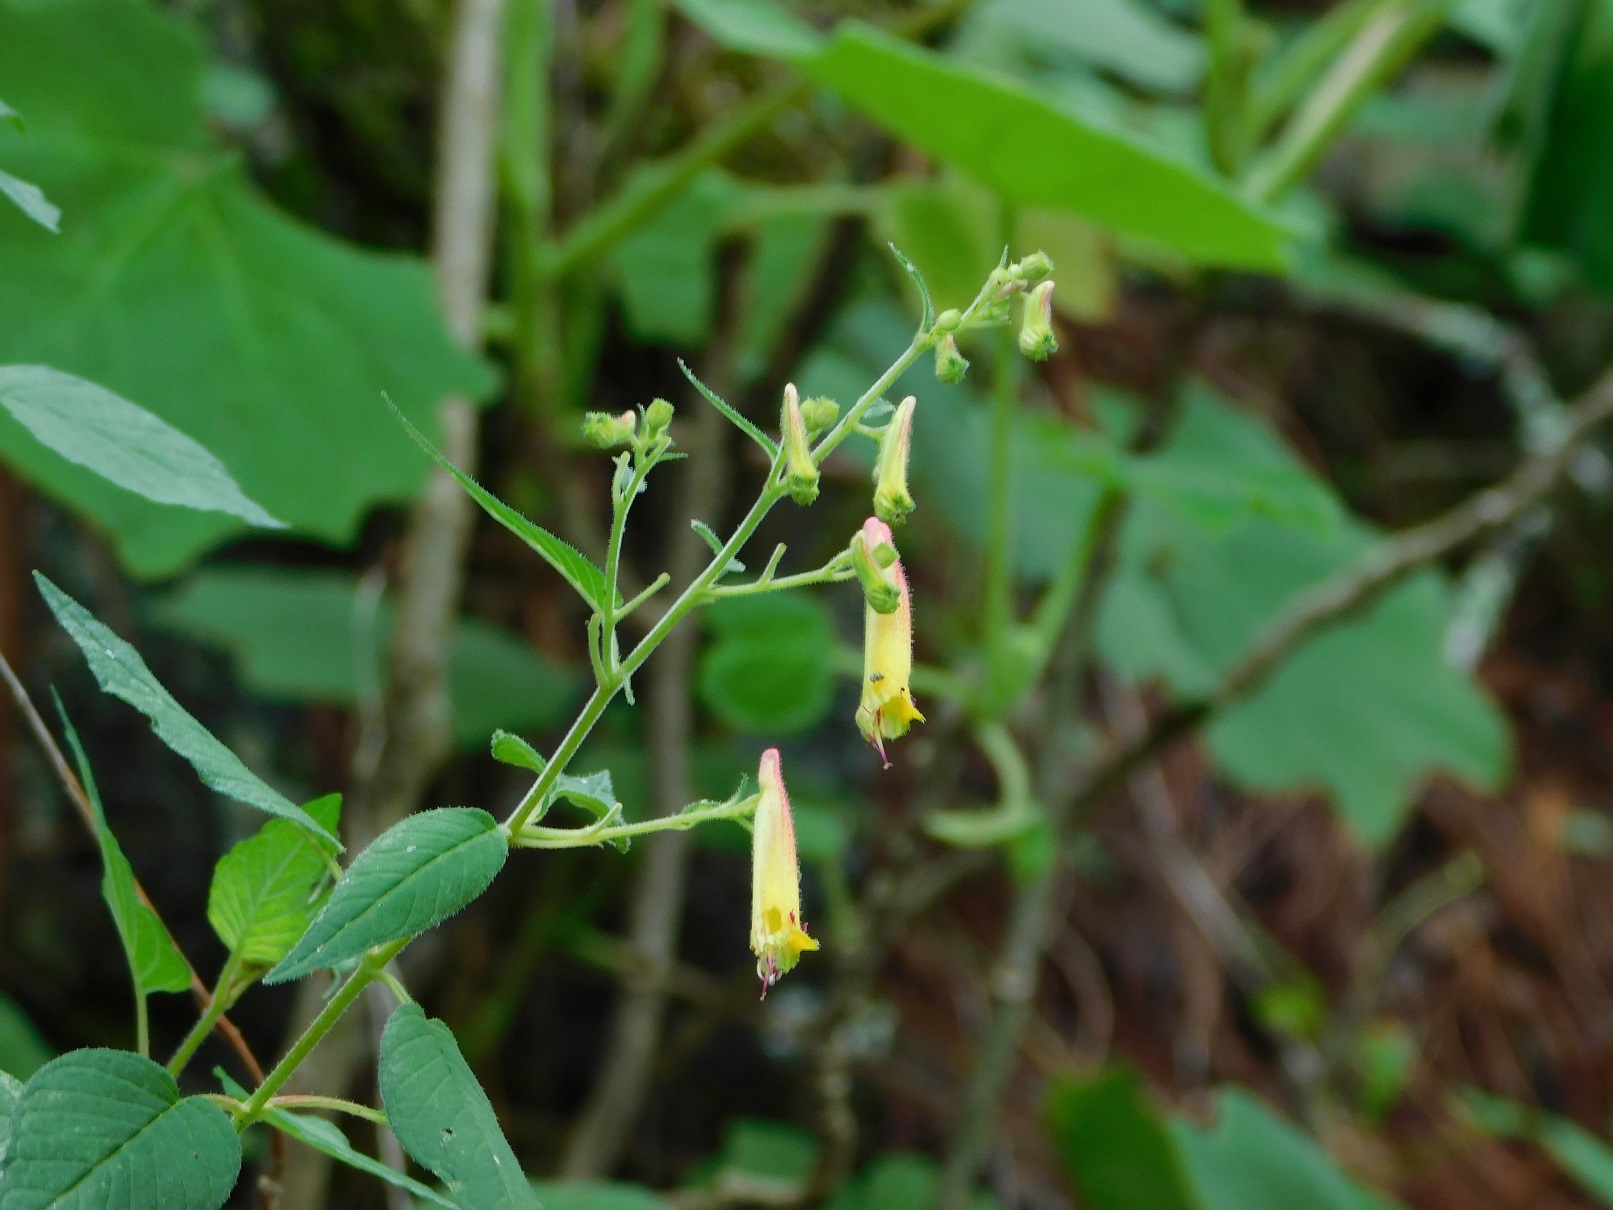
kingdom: Plantae
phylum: Tracheophyta
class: Magnoliopsida
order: Myrtales
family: Lythraceae
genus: Cuphea
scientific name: Cuphea cyanea
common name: Black-eyed cuphea
